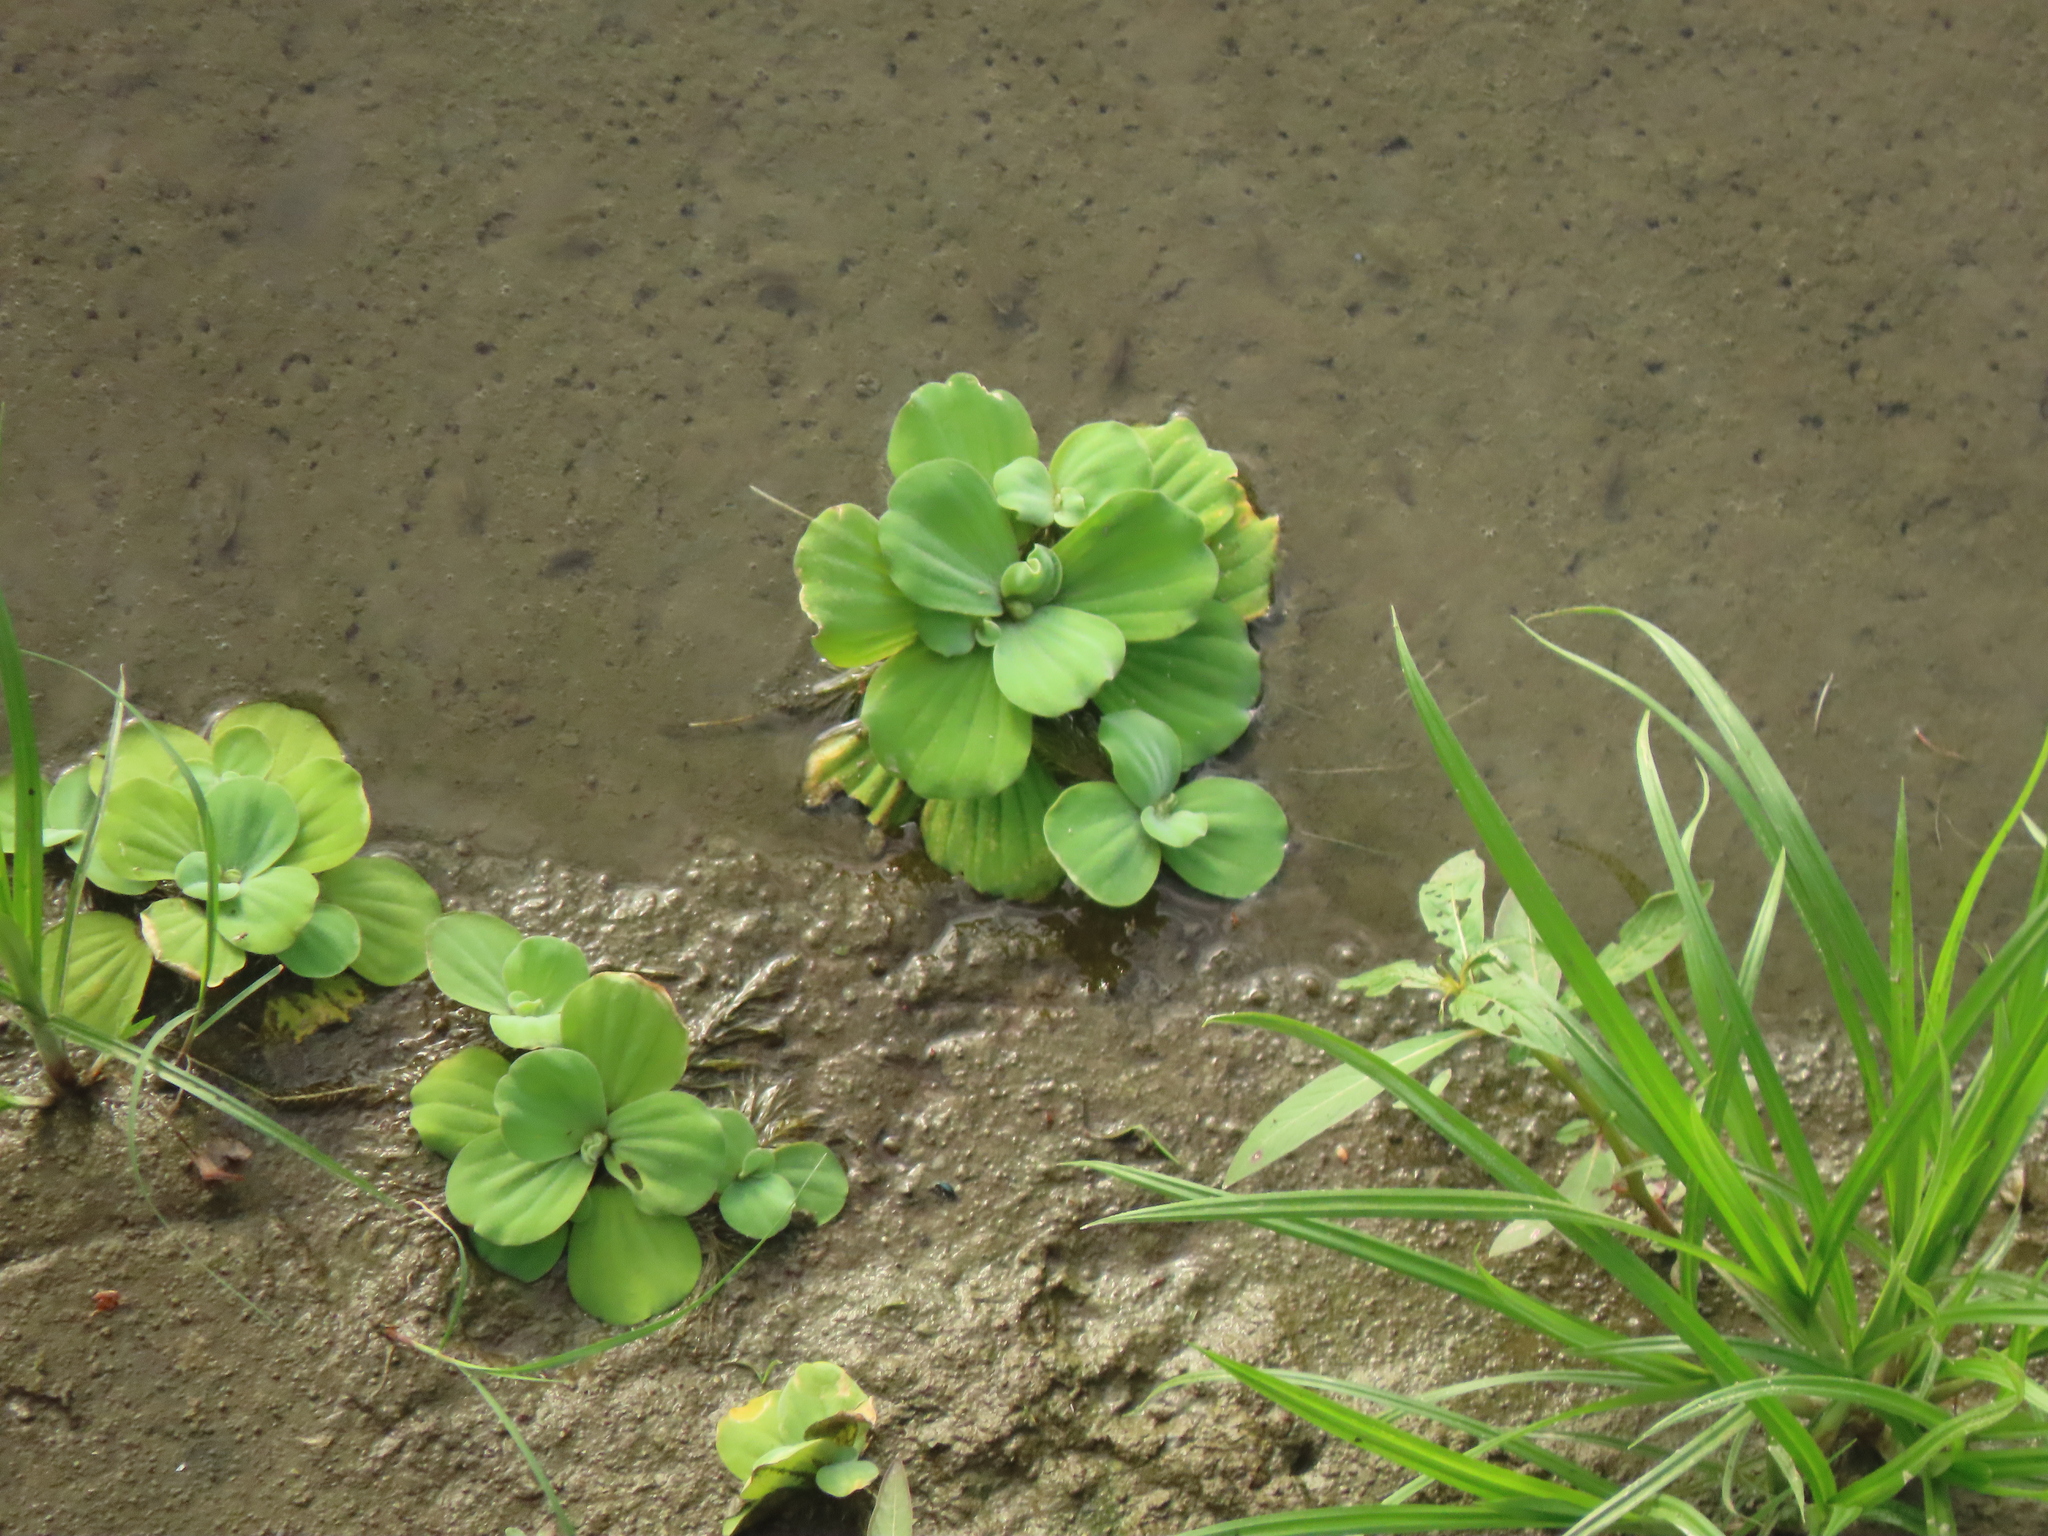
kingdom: Plantae
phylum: Tracheophyta
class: Liliopsida
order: Alismatales
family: Araceae
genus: Pistia
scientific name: Pistia stratiotes
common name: Water lettuce
